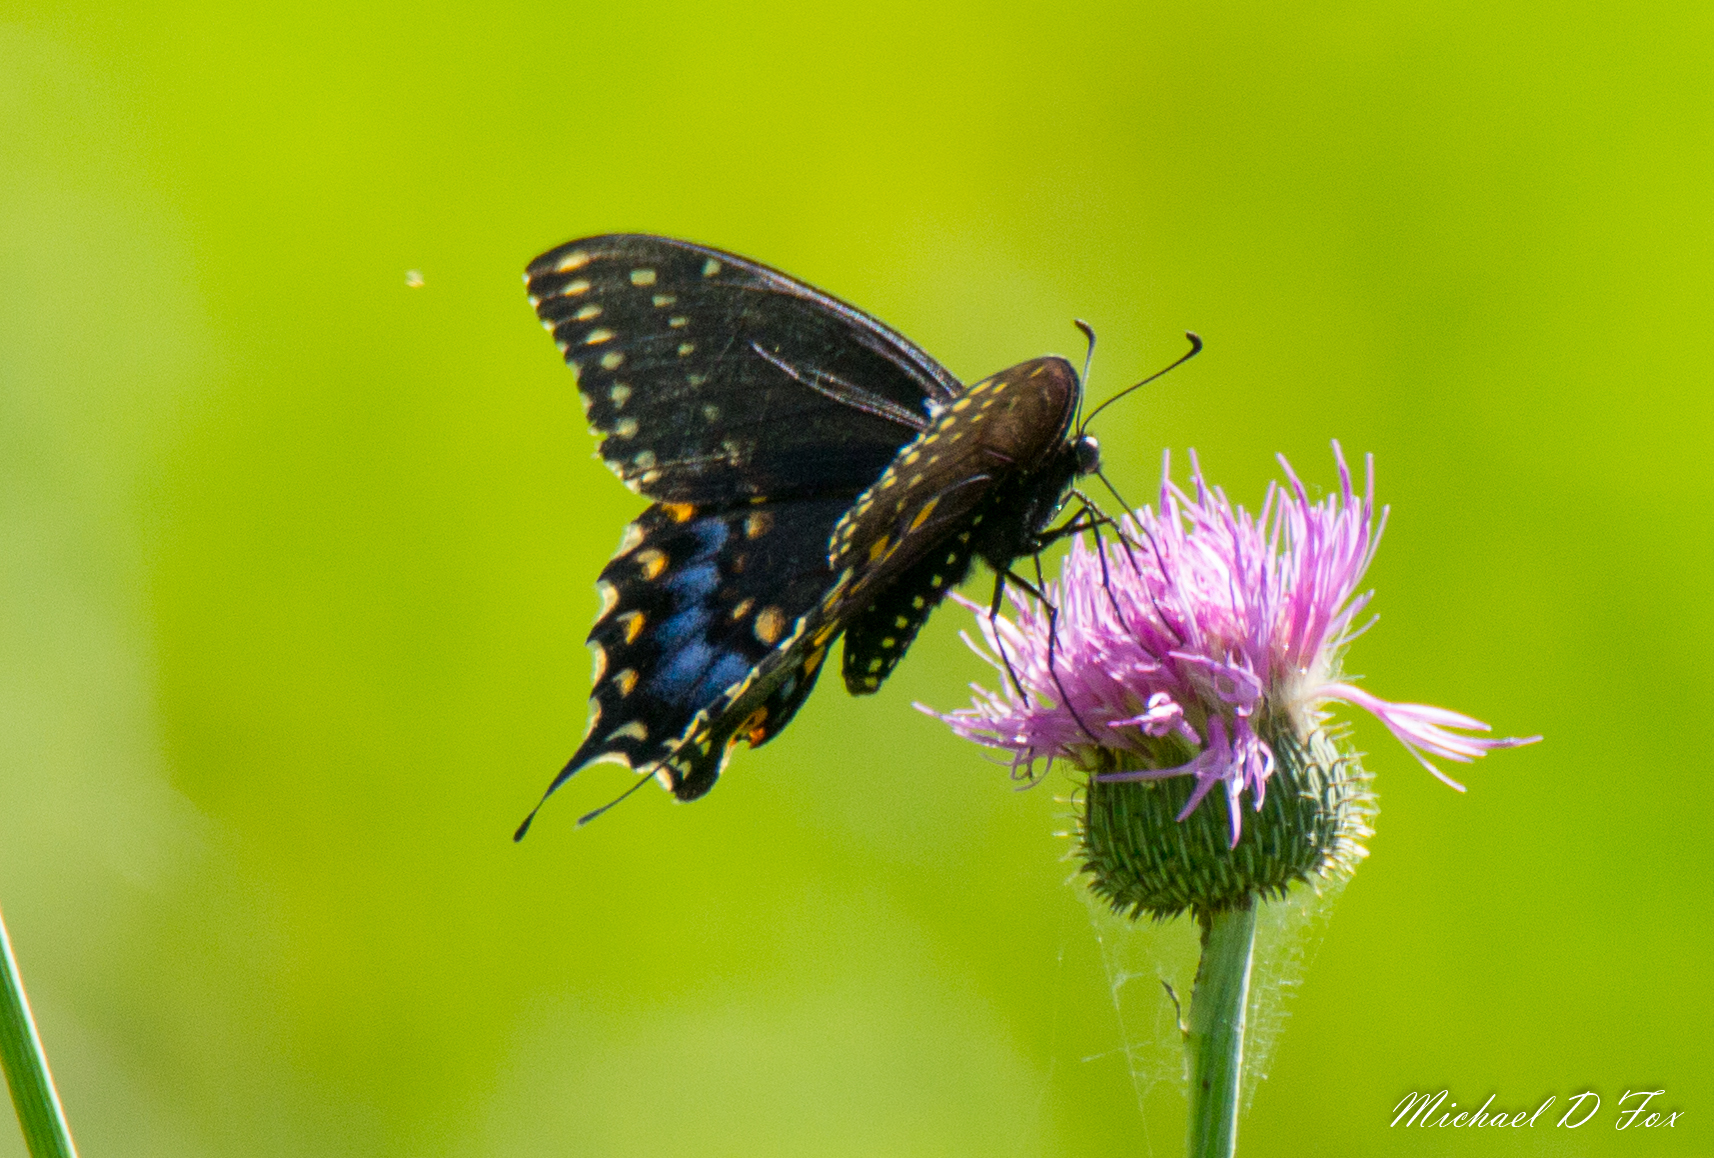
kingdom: Animalia
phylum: Arthropoda
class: Insecta
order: Lepidoptera
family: Papilionidae
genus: Papilio
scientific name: Papilio polyxenes
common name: Black swallowtail
